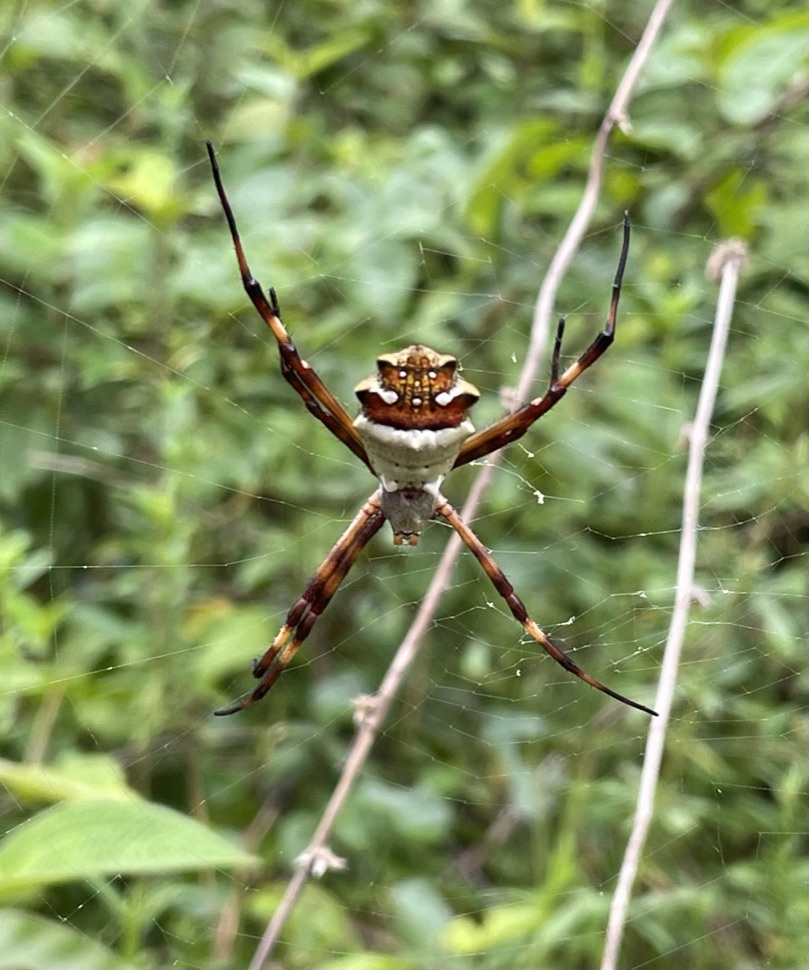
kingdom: Animalia
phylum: Arthropoda
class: Arachnida
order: Araneae
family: Araneidae
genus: Argiope
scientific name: Argiope argentata
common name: Orb weavers
